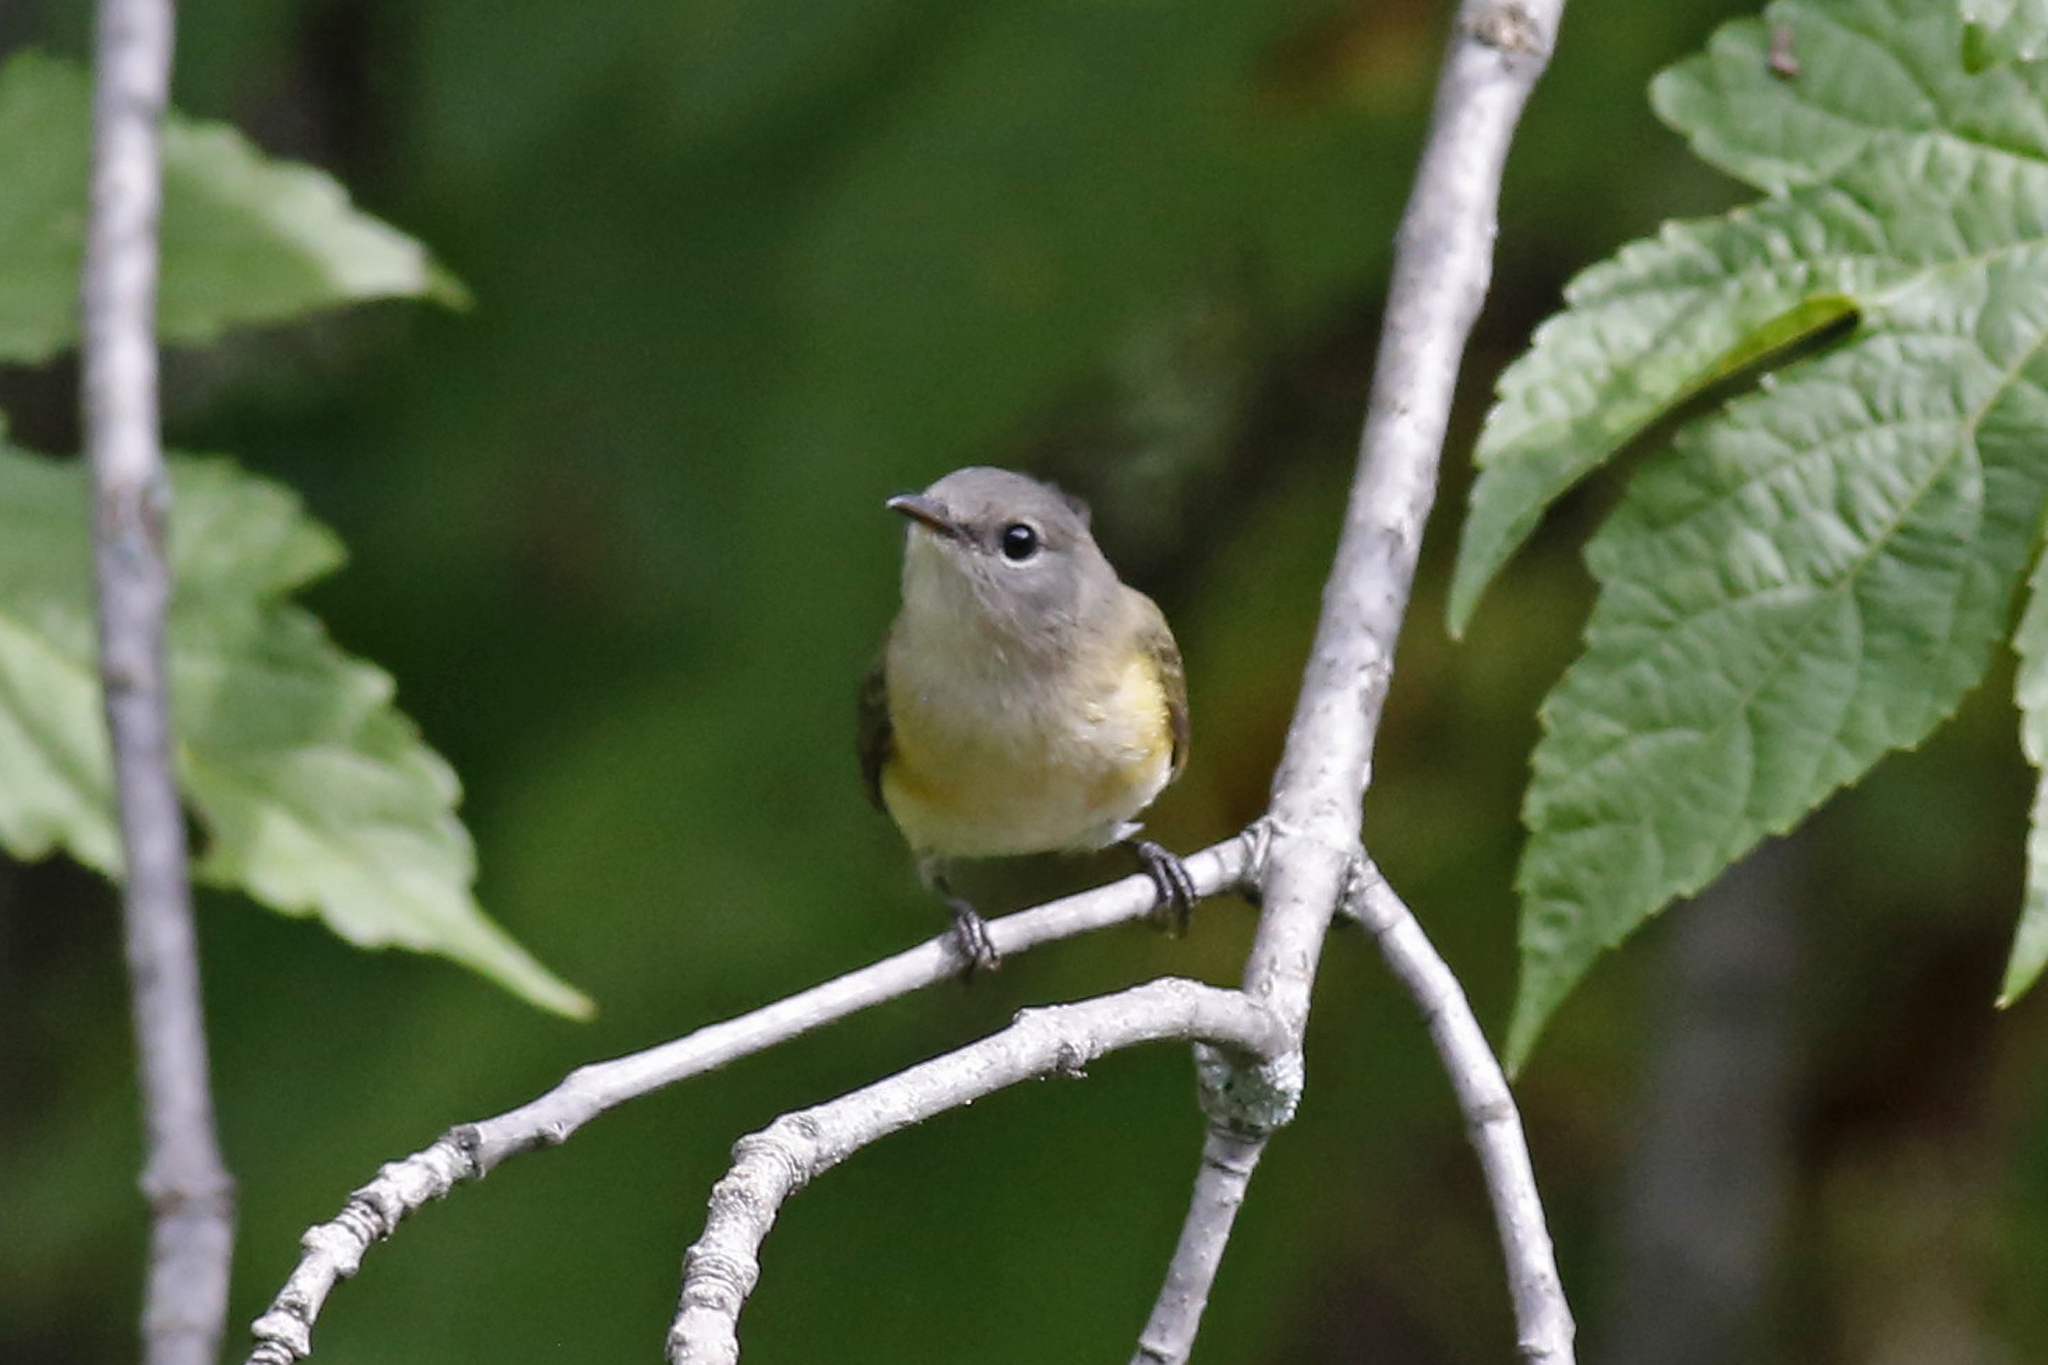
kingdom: Animalia
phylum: Chordata
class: Aves
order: Passeriformes
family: Parulidae
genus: Setophaga
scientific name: Setophaga ruticilla
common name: American redstart
